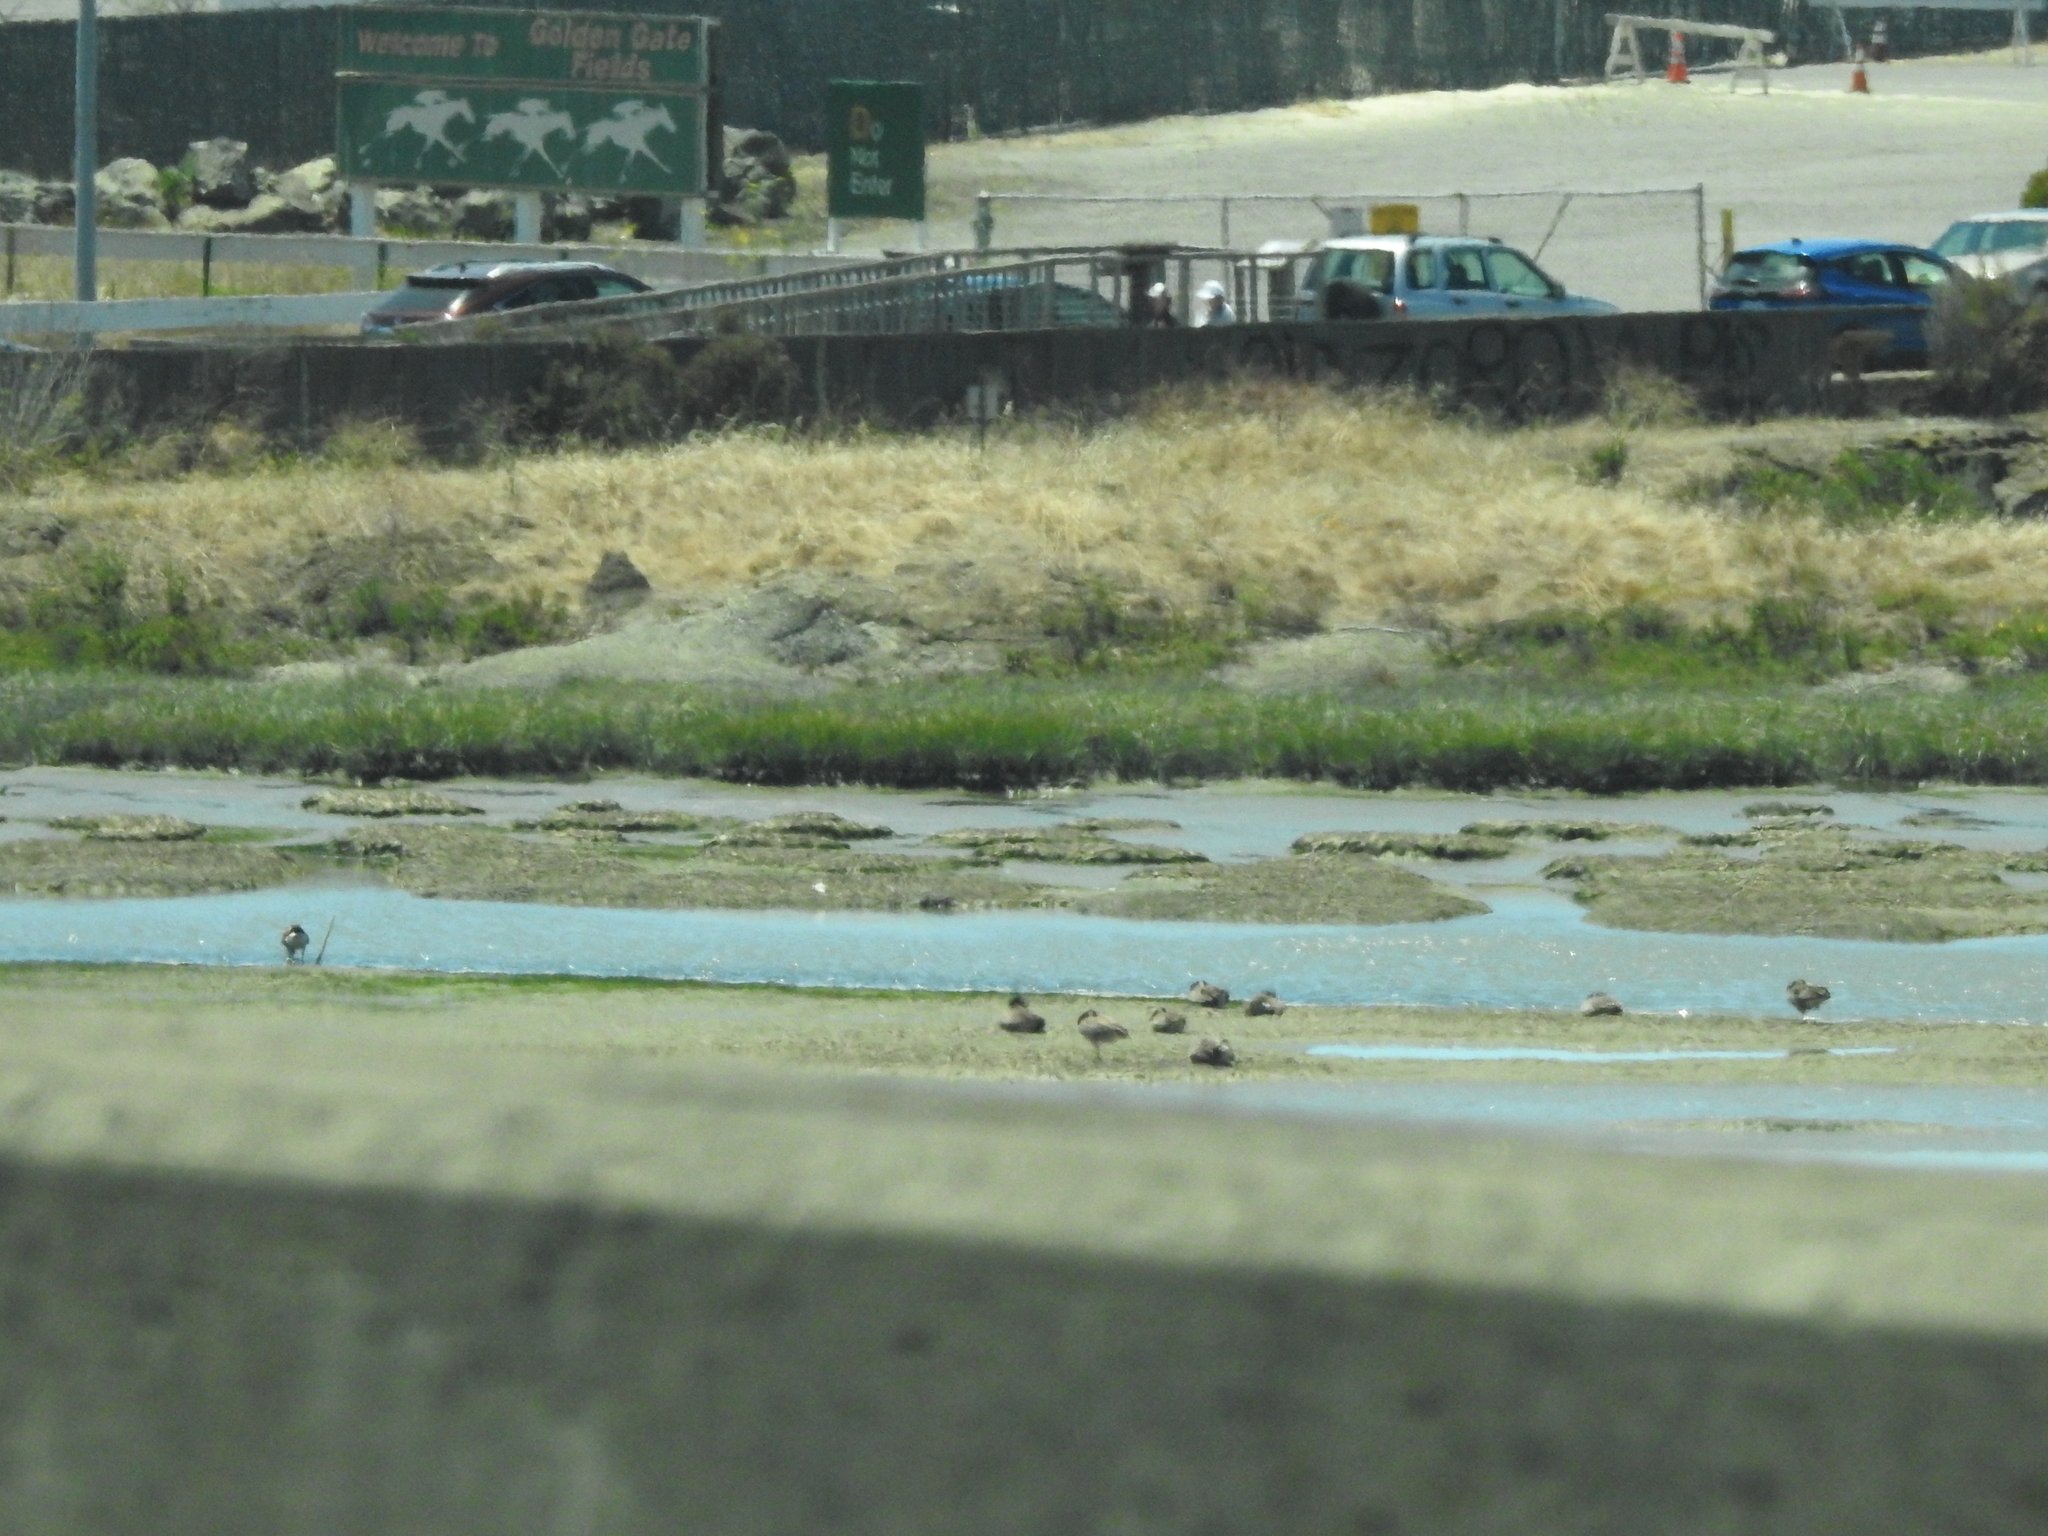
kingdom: Animalia
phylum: Chordata
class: Aves
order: Anseriformes
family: Anatidae
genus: Branta
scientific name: Branta canadensis
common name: Canada goose
